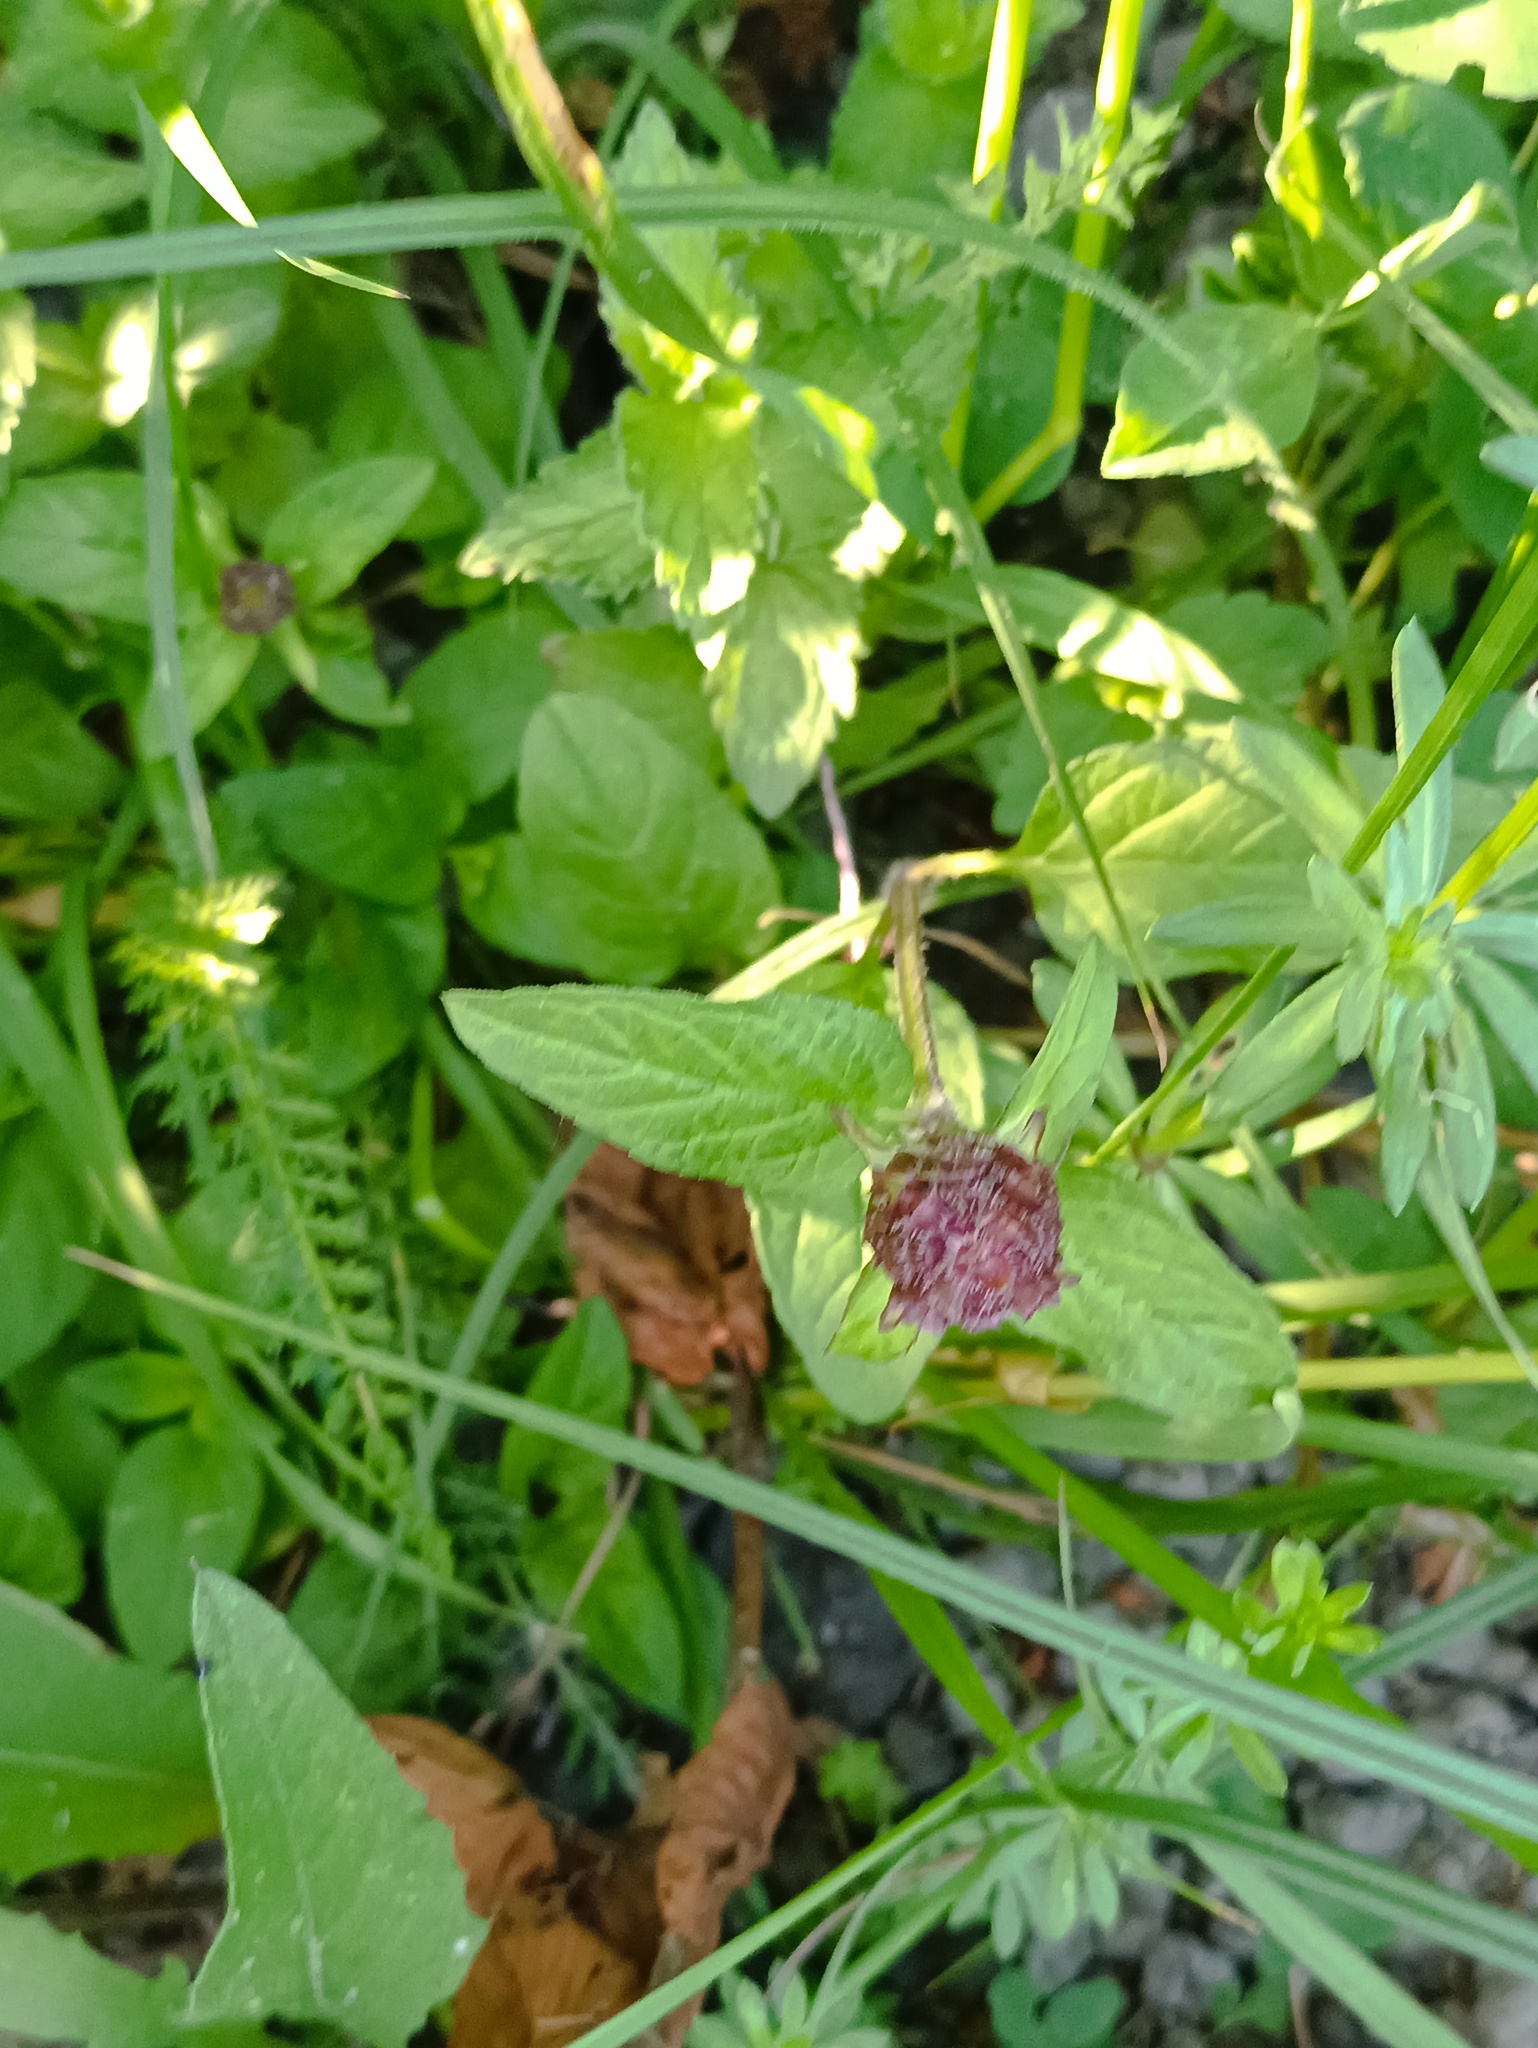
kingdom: Plantae
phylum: Tracheophyta
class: Magnoliopsida
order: Lamiales
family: Lamiaceae
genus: Prunella
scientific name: Prunella vulgaris
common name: Heal-all
